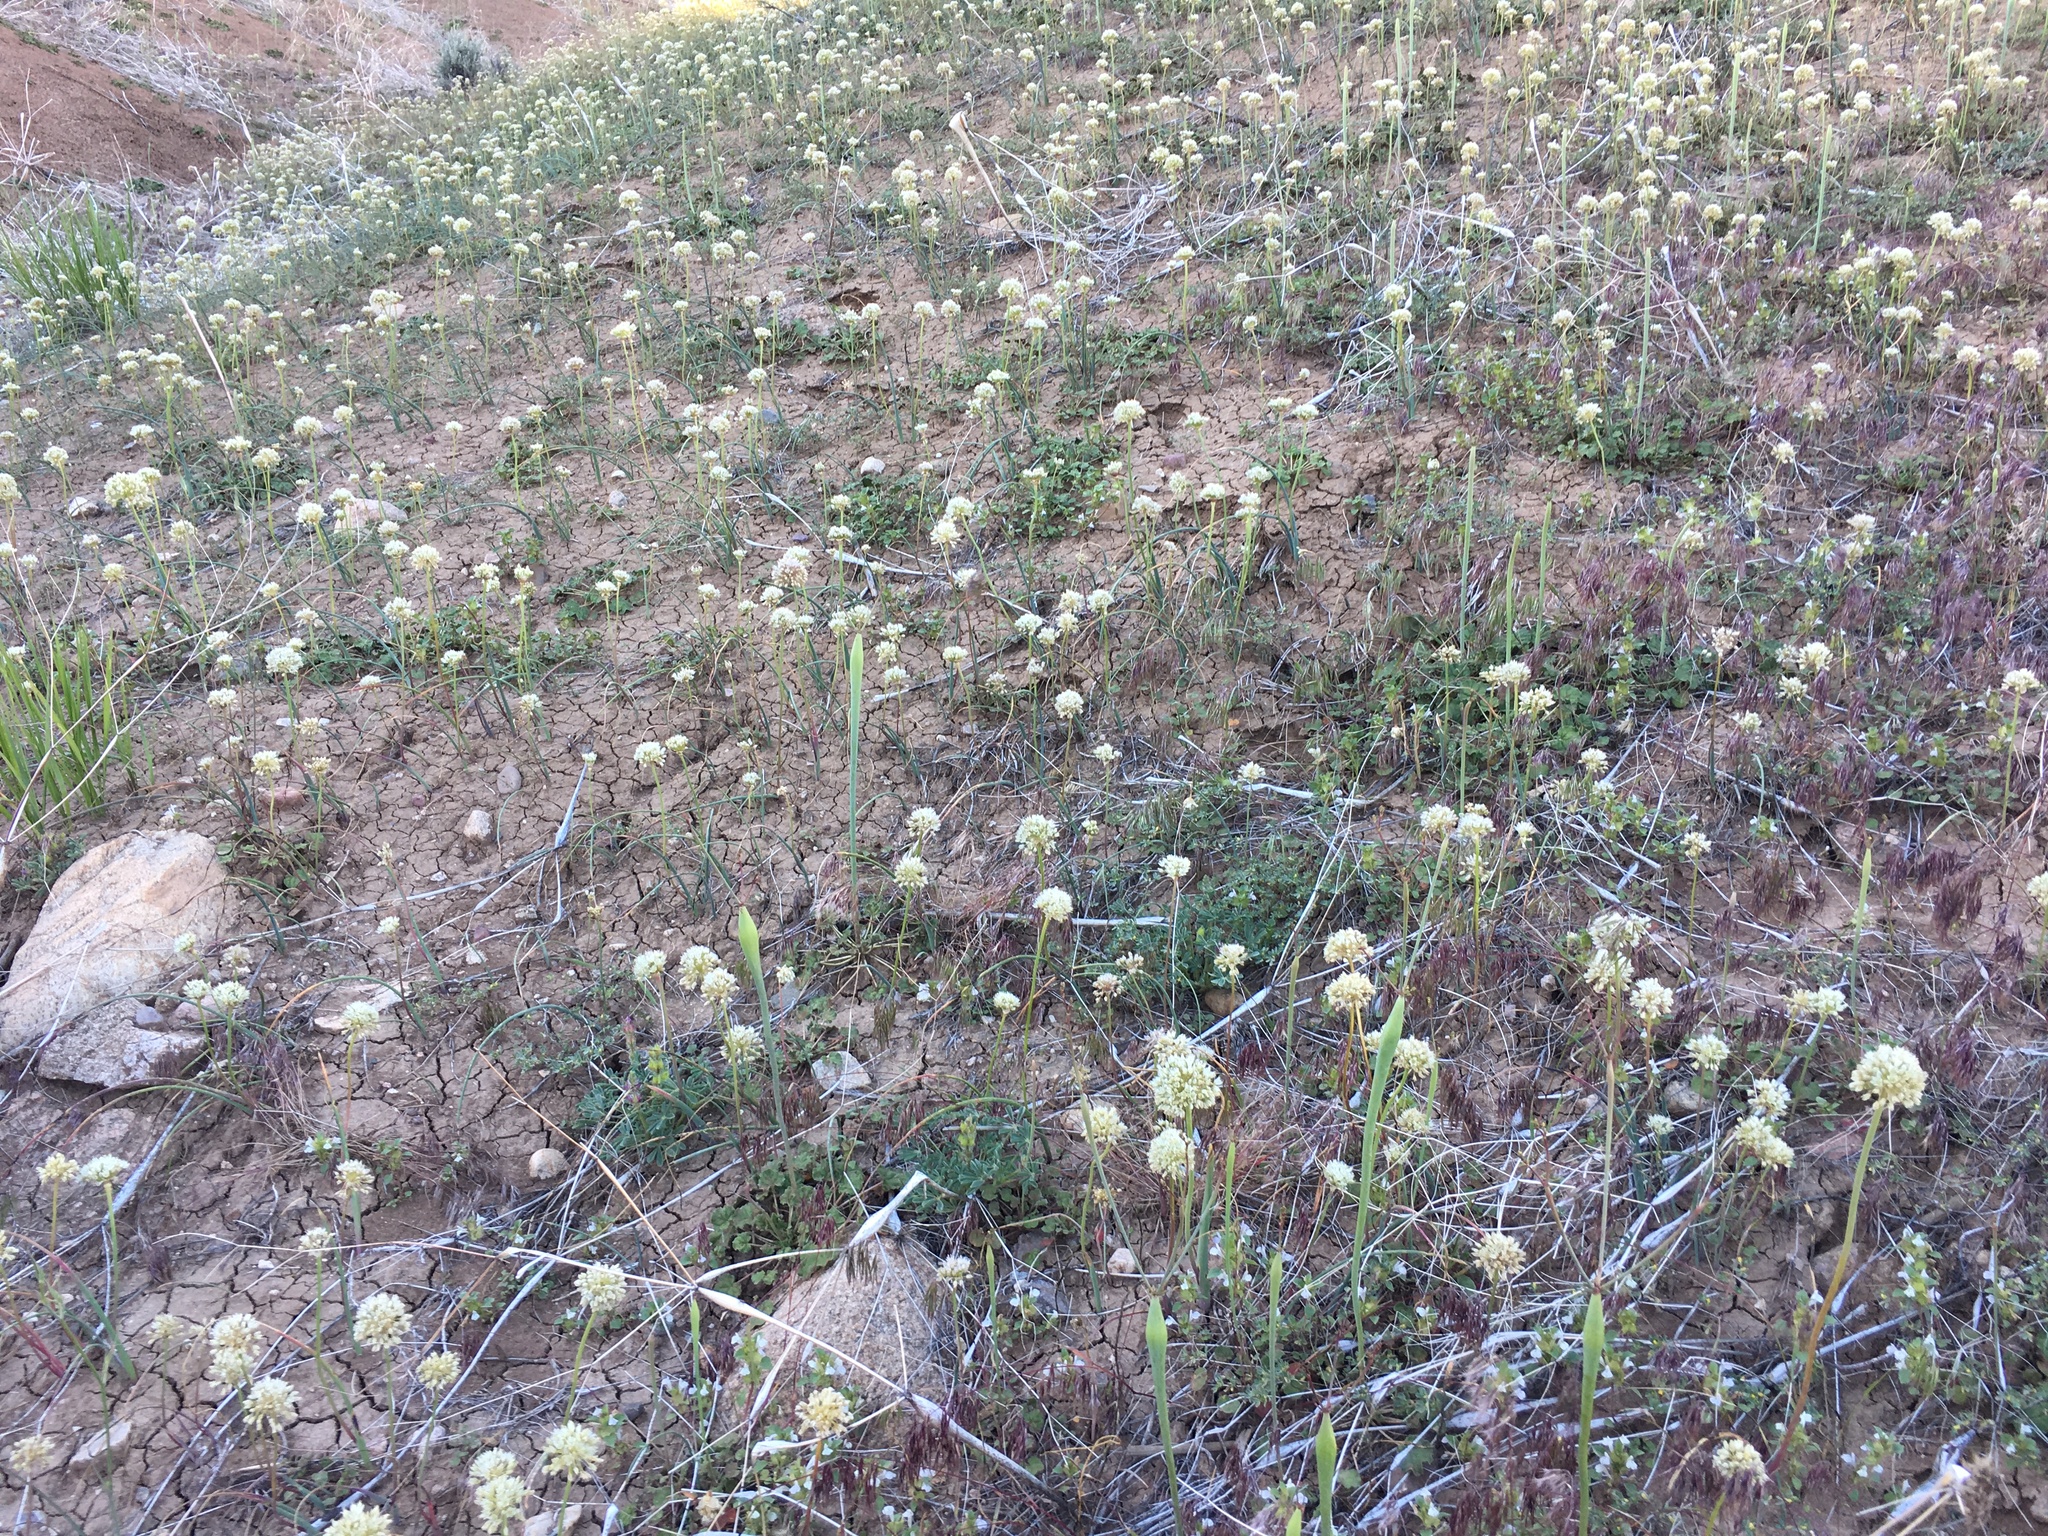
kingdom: Plantae
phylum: Tracheophyta
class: Liliopsida
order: Asparagales
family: Amaryllidaceae
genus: Allium
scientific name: Allium howellii
